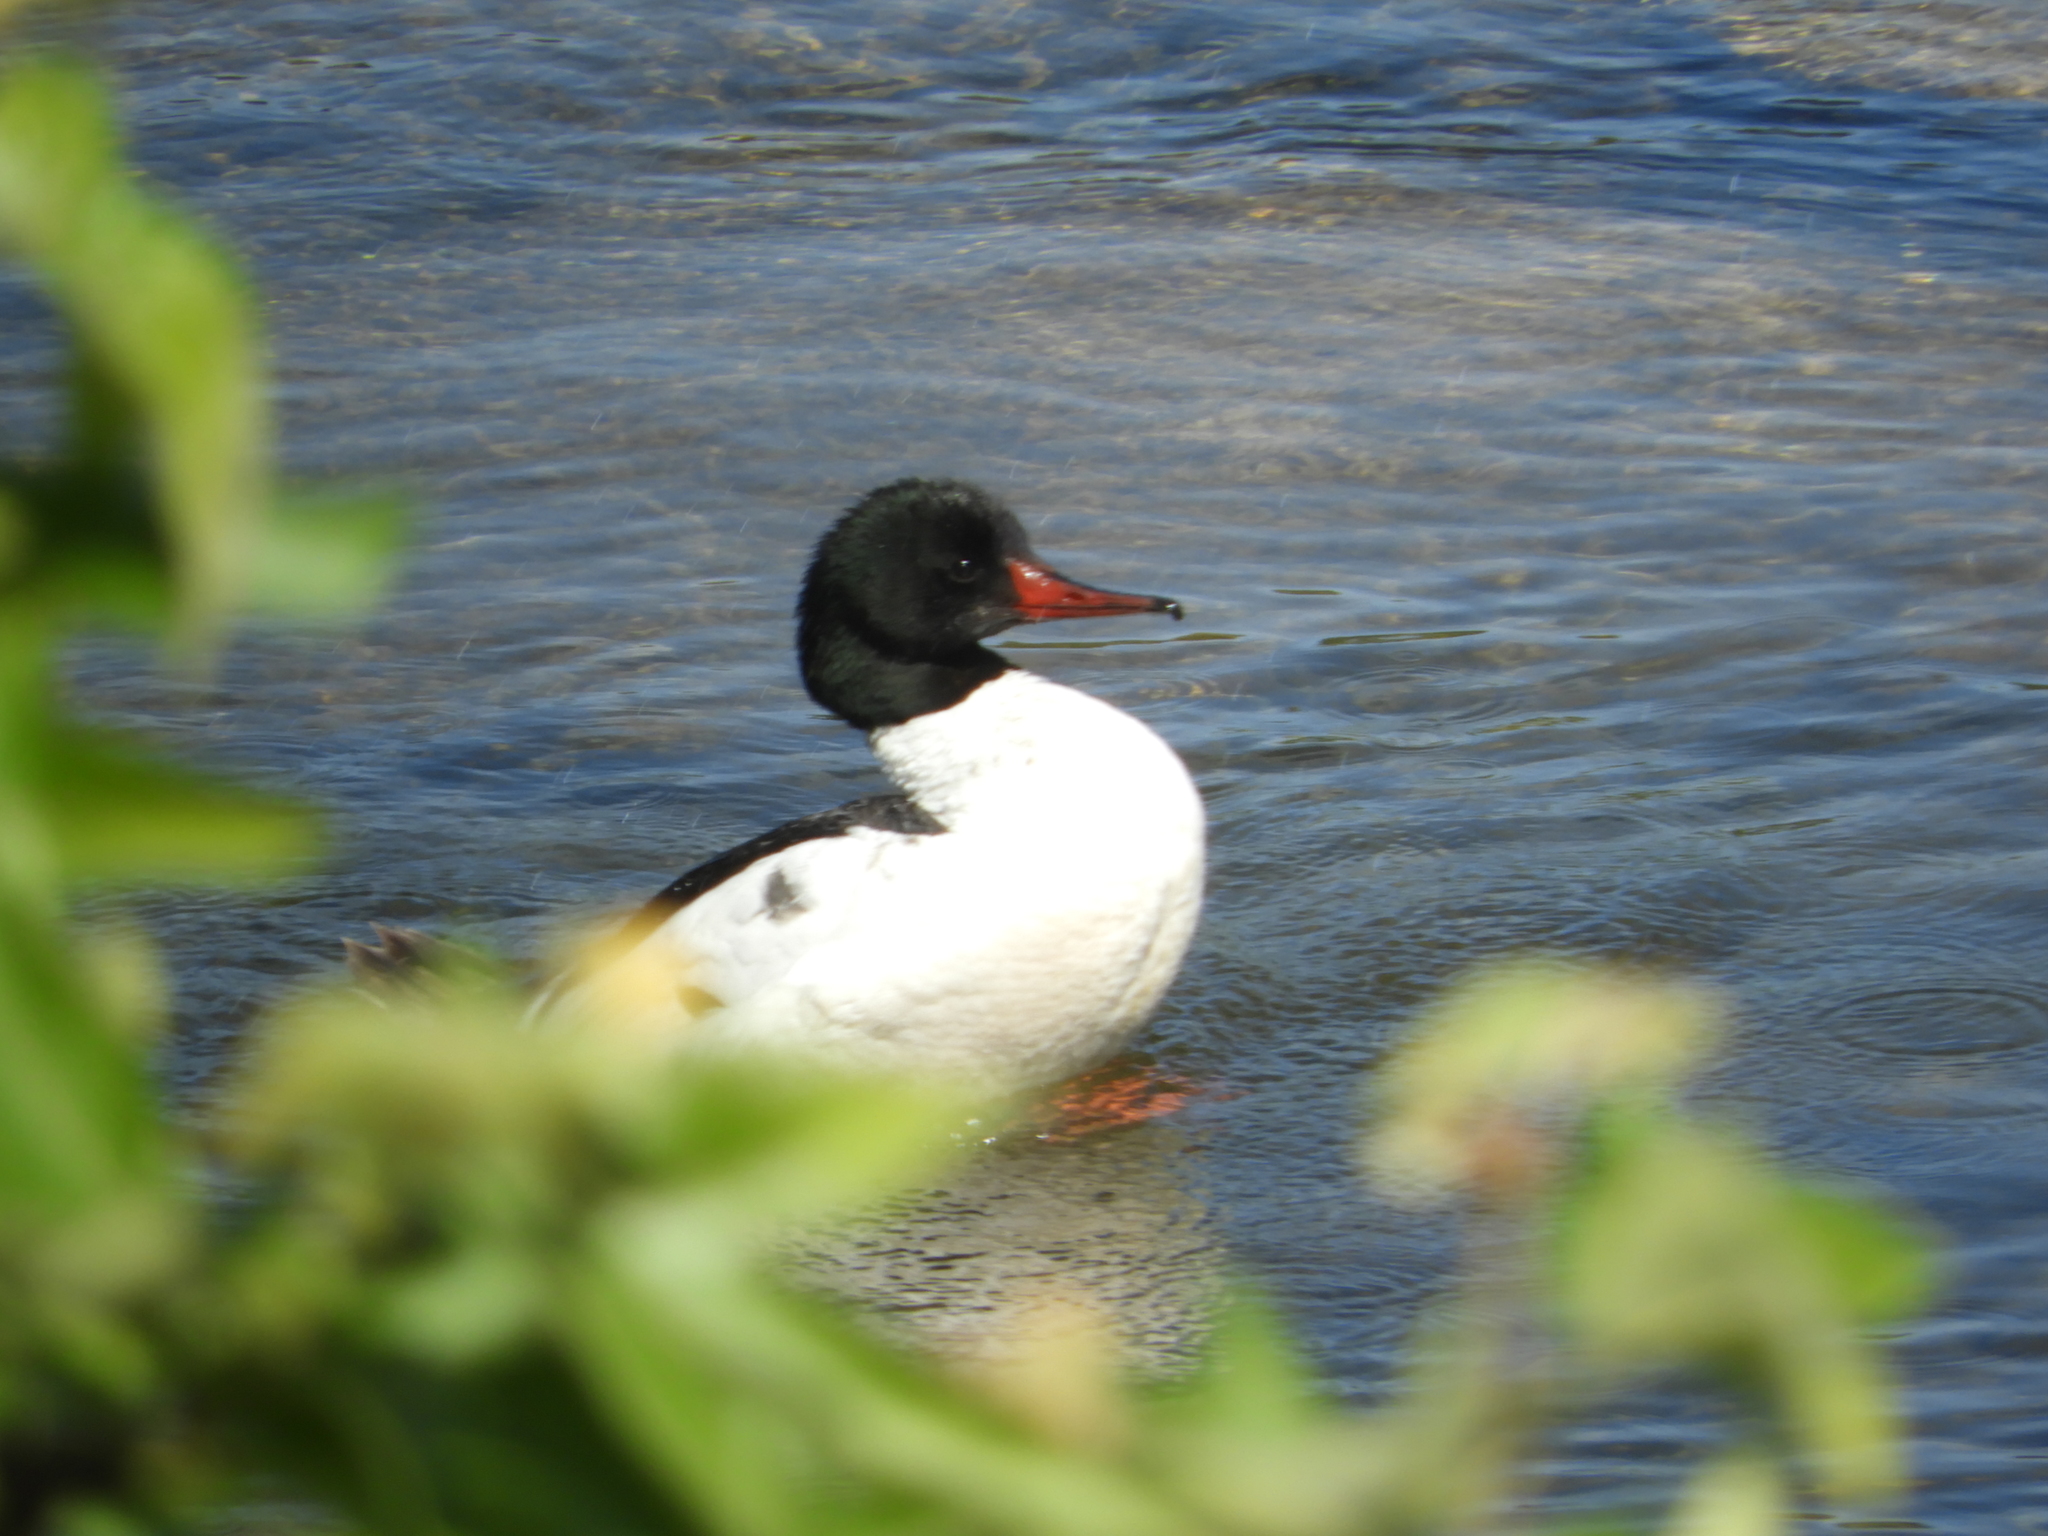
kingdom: Animalia
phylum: Chordata
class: Aves
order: Anseriformes
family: Anatidae
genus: Mergus
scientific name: Mergus merganser
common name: Common merganser
